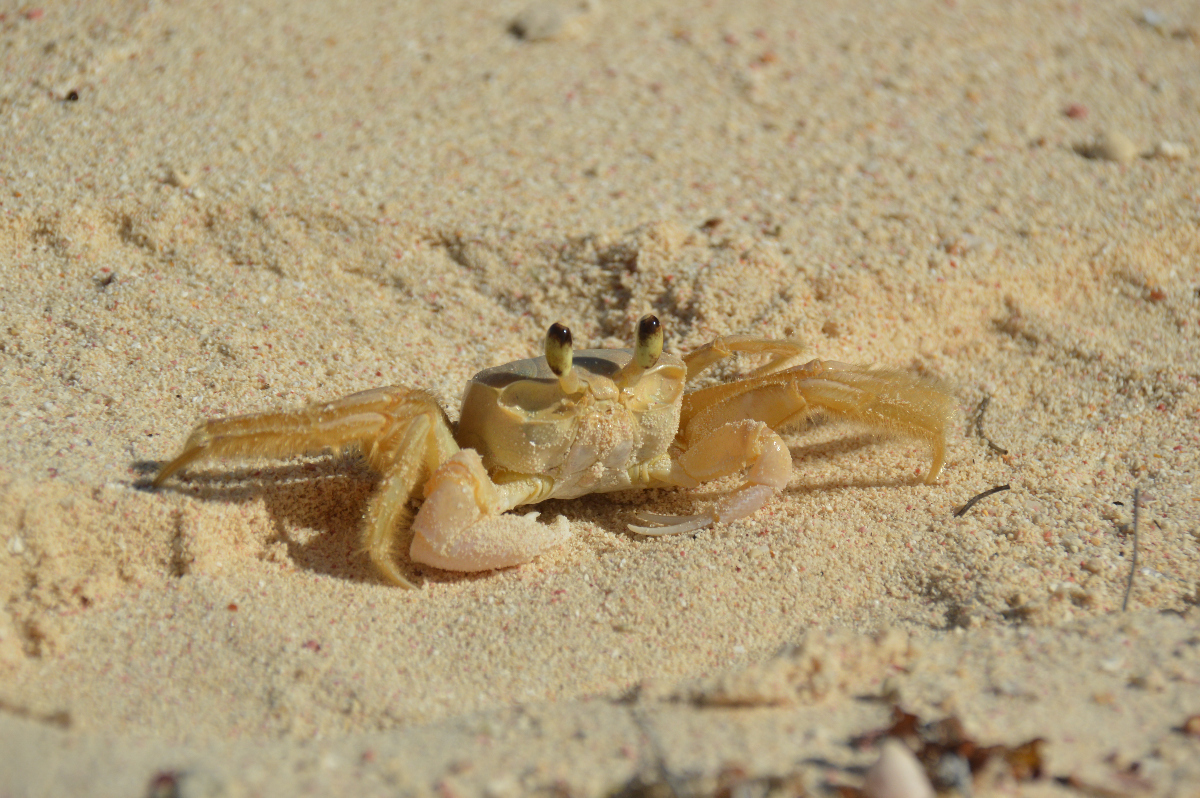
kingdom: Animalia
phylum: Arthropoda
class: Malacostraca
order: Decapoda
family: Ocypodidae
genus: Ocypode
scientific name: Ocypode quadrata
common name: Ghost crab
